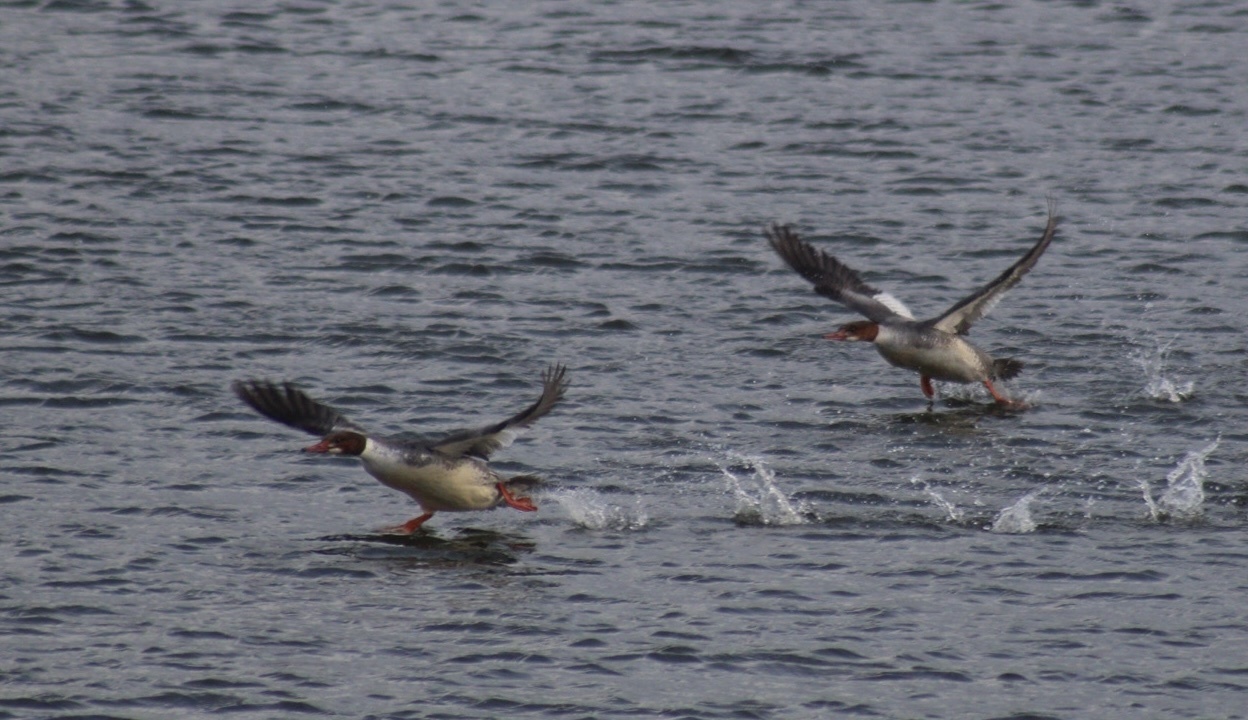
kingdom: Animalia
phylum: Chordata
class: Aves
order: Anseriformes
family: Anatidae
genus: Mergus
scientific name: Mergus merganser
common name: Common merganser
